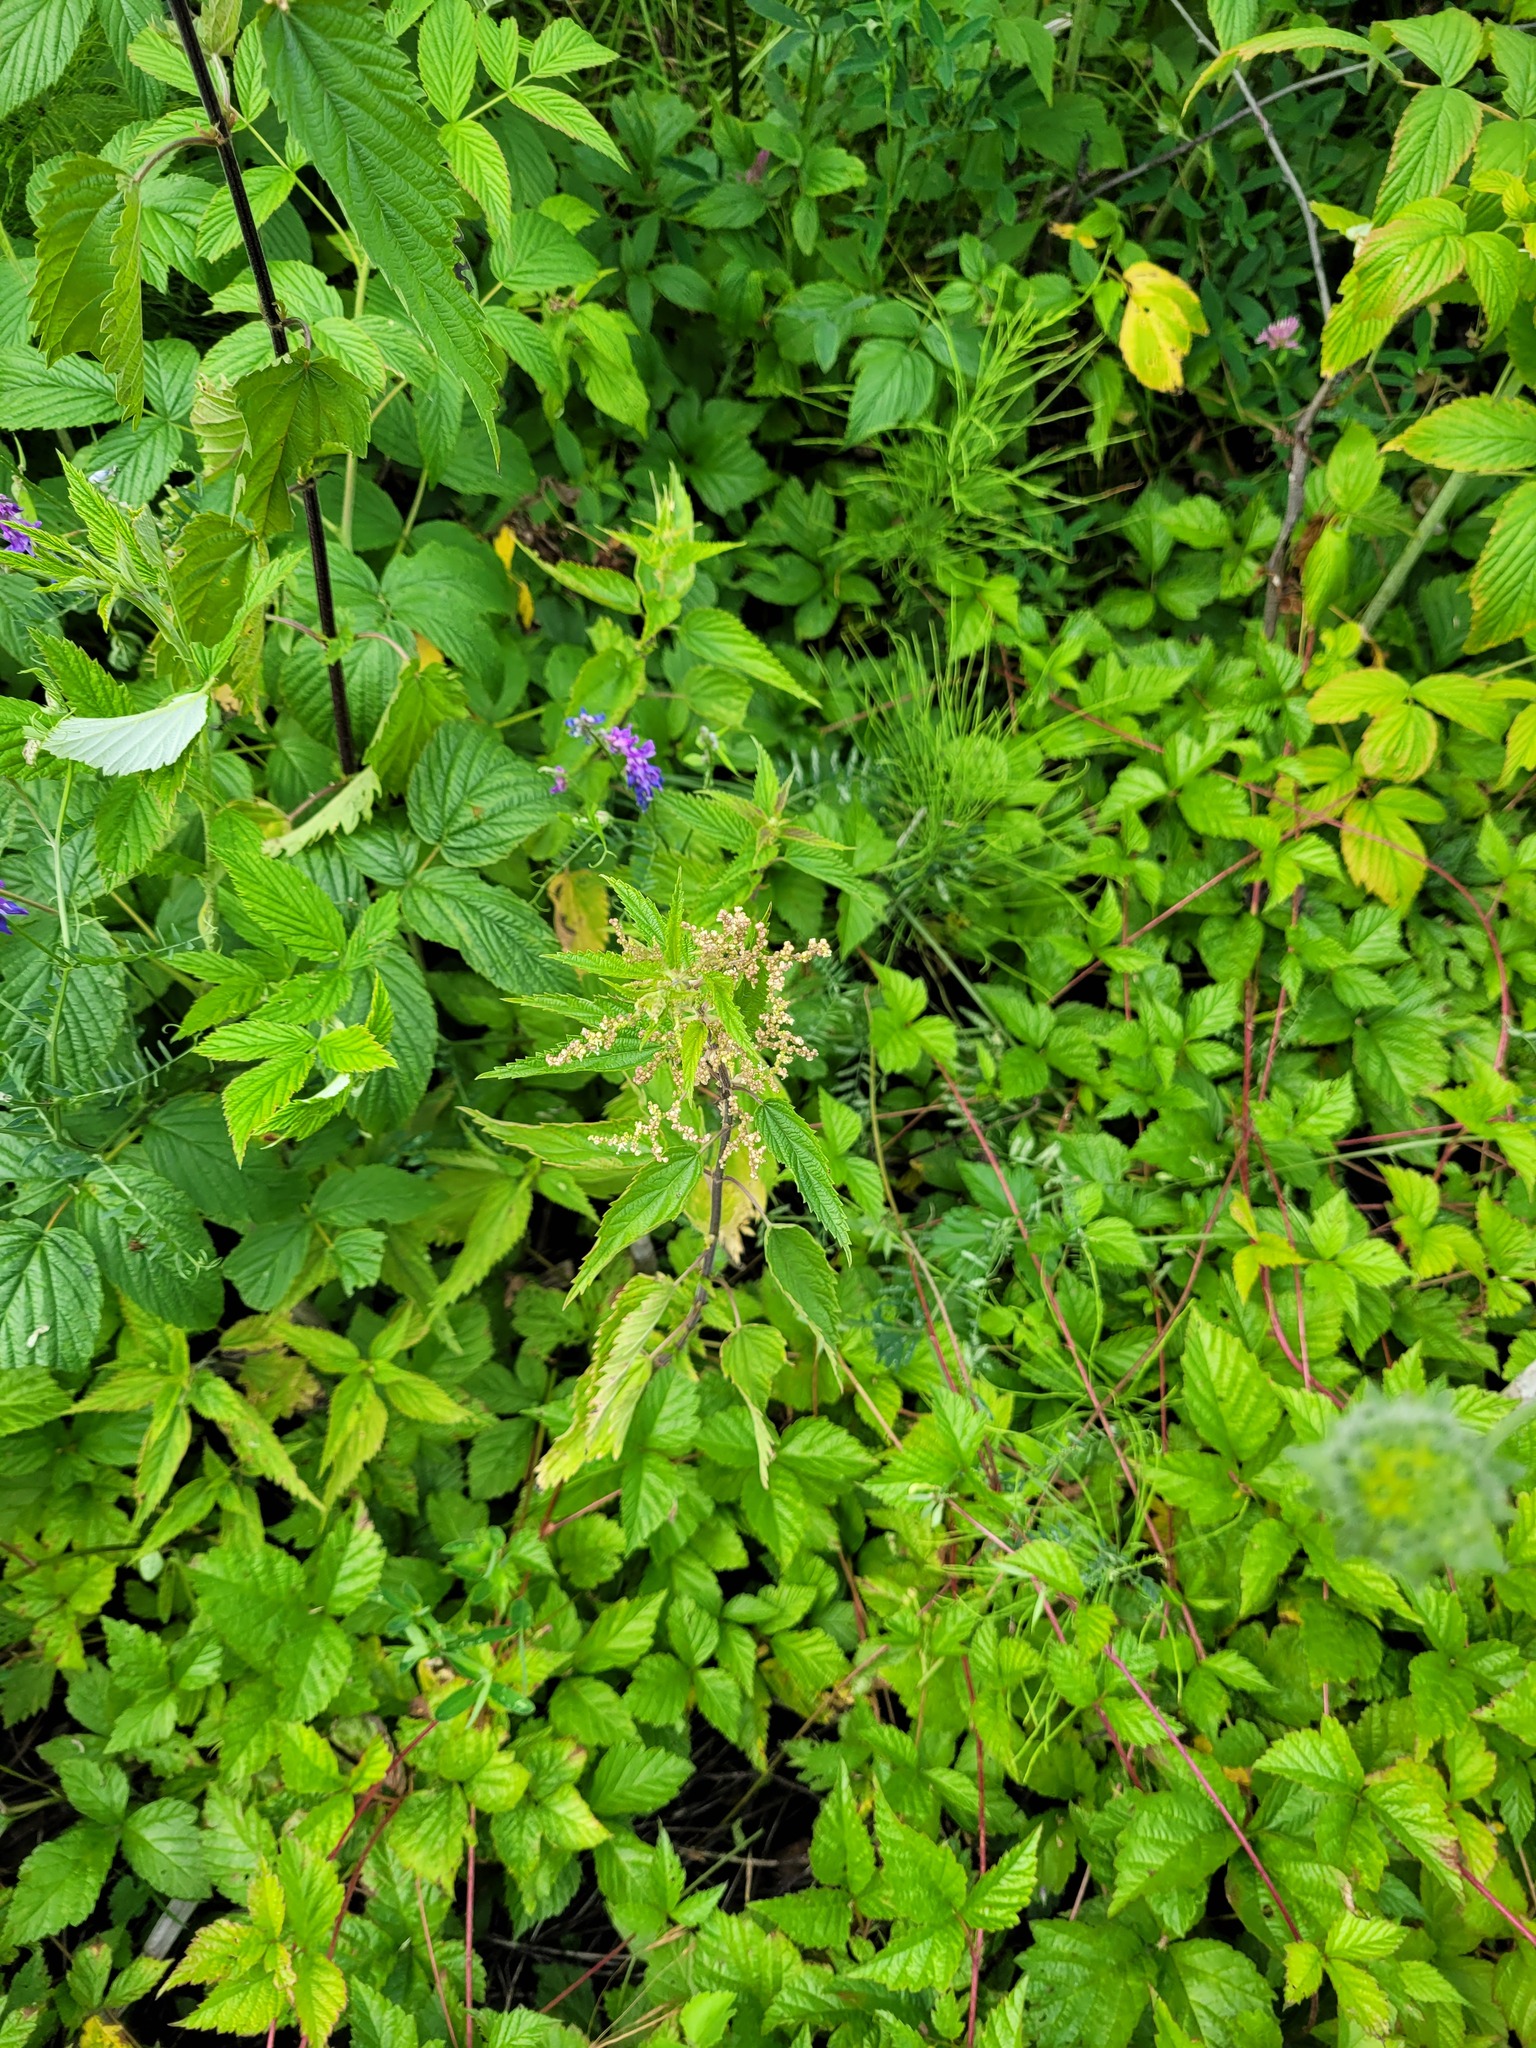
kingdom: Plantae
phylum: Tracheophyta
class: Magnoliopsida
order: Rosales
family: Urticaceae
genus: Urtica
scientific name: Urtica dioica
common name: Common nettle
